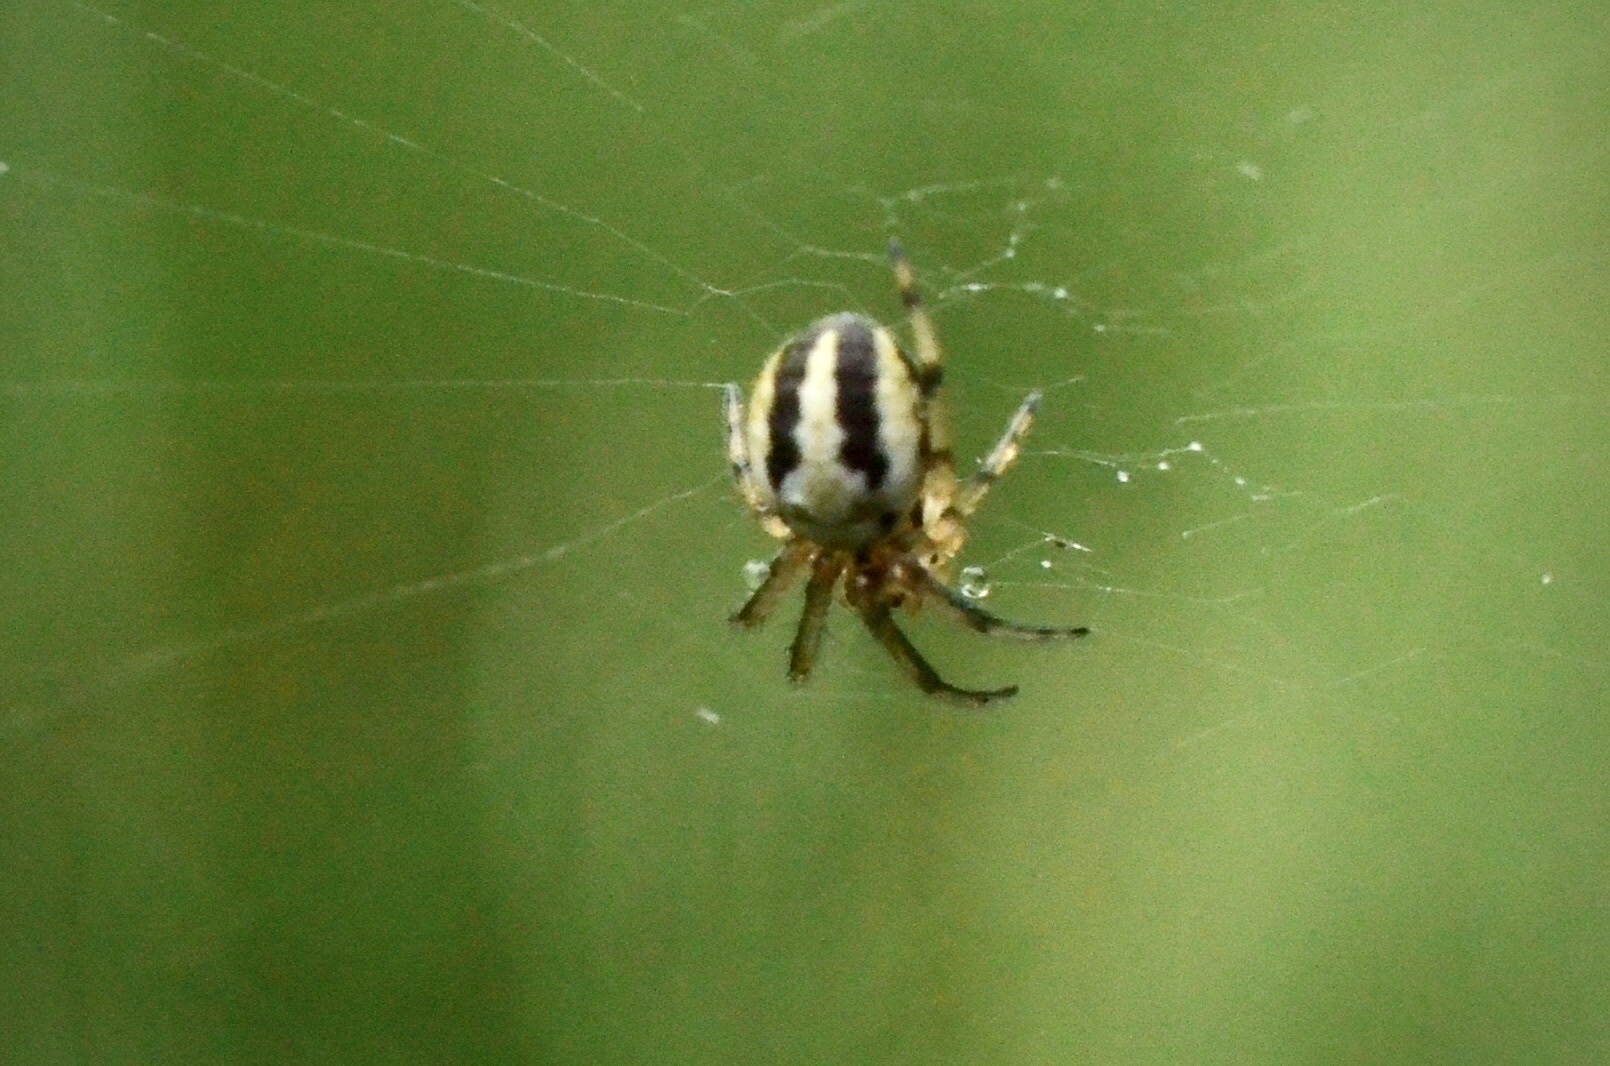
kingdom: Animalia
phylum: Arthropoda
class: Arachnida
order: Araneae
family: Araneidae
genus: Neoscona
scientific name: Neoscona adianta
